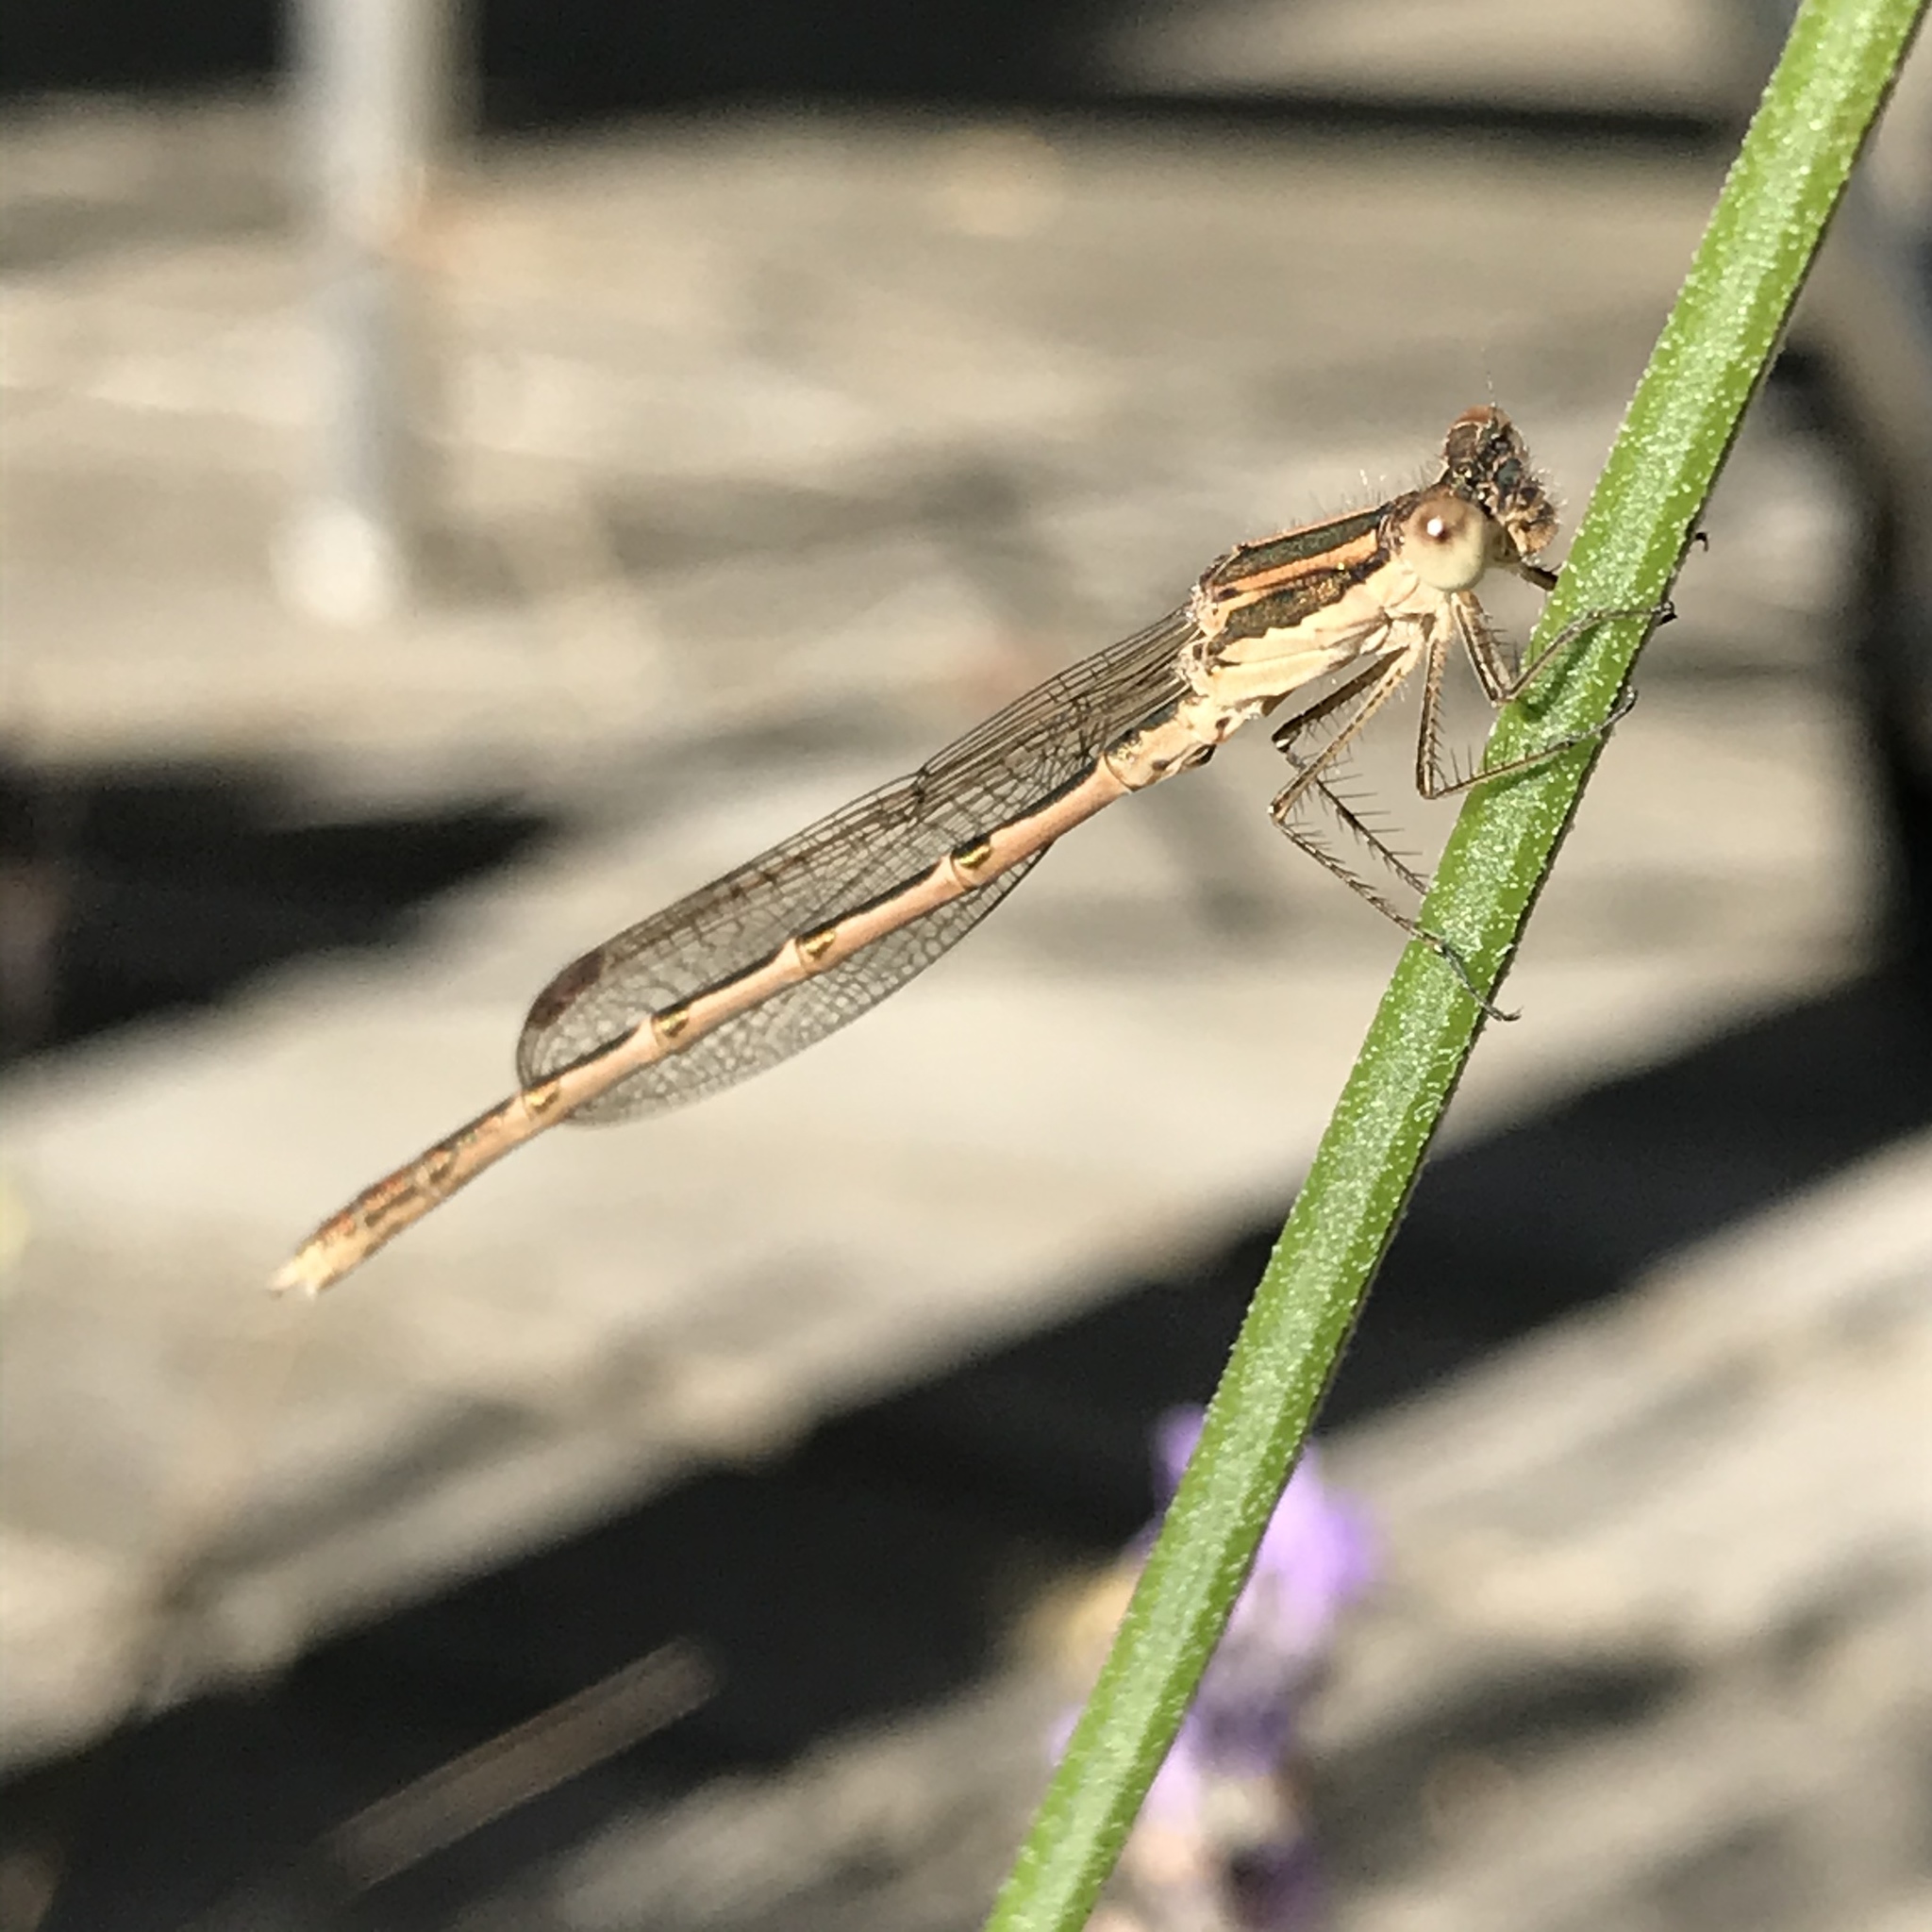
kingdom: Animalia
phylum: Arthropoda
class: Insecta
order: Odonata
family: Lestidae
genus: Sympecma
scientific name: Sympecma fusca
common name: Common winter damsel
